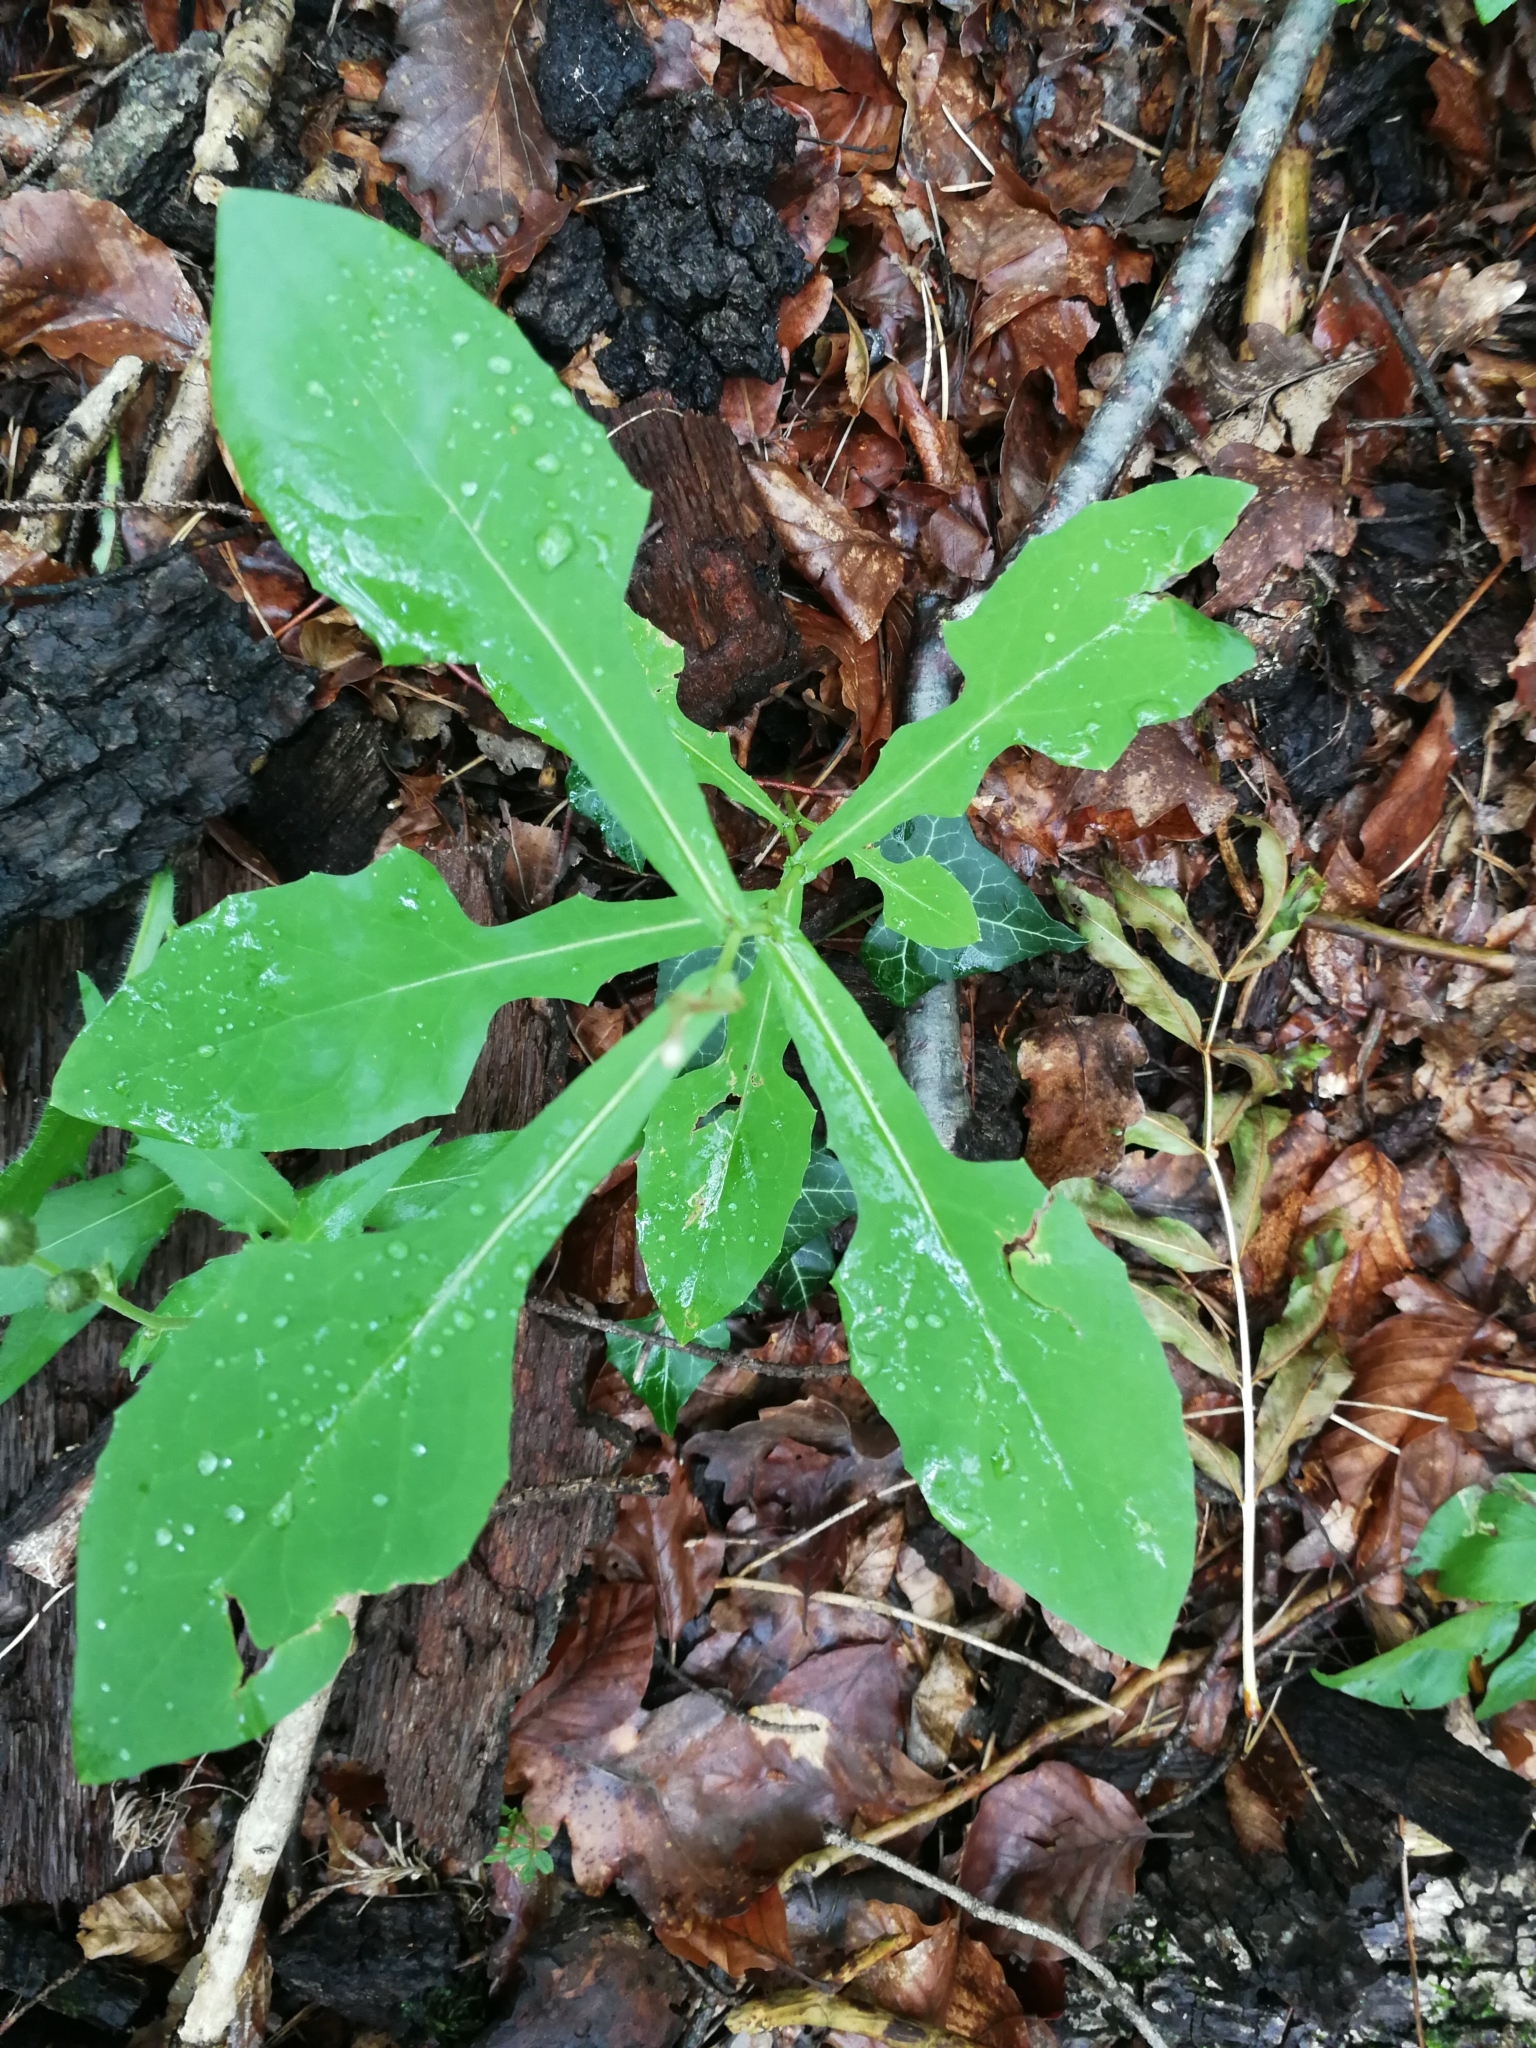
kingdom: Plantae
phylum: Tracheophyta
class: Magnoliopsida
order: Asterales
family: Asteraceae
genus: Prenanthes
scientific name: Prenanthes purpurea
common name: Purple lettuce
